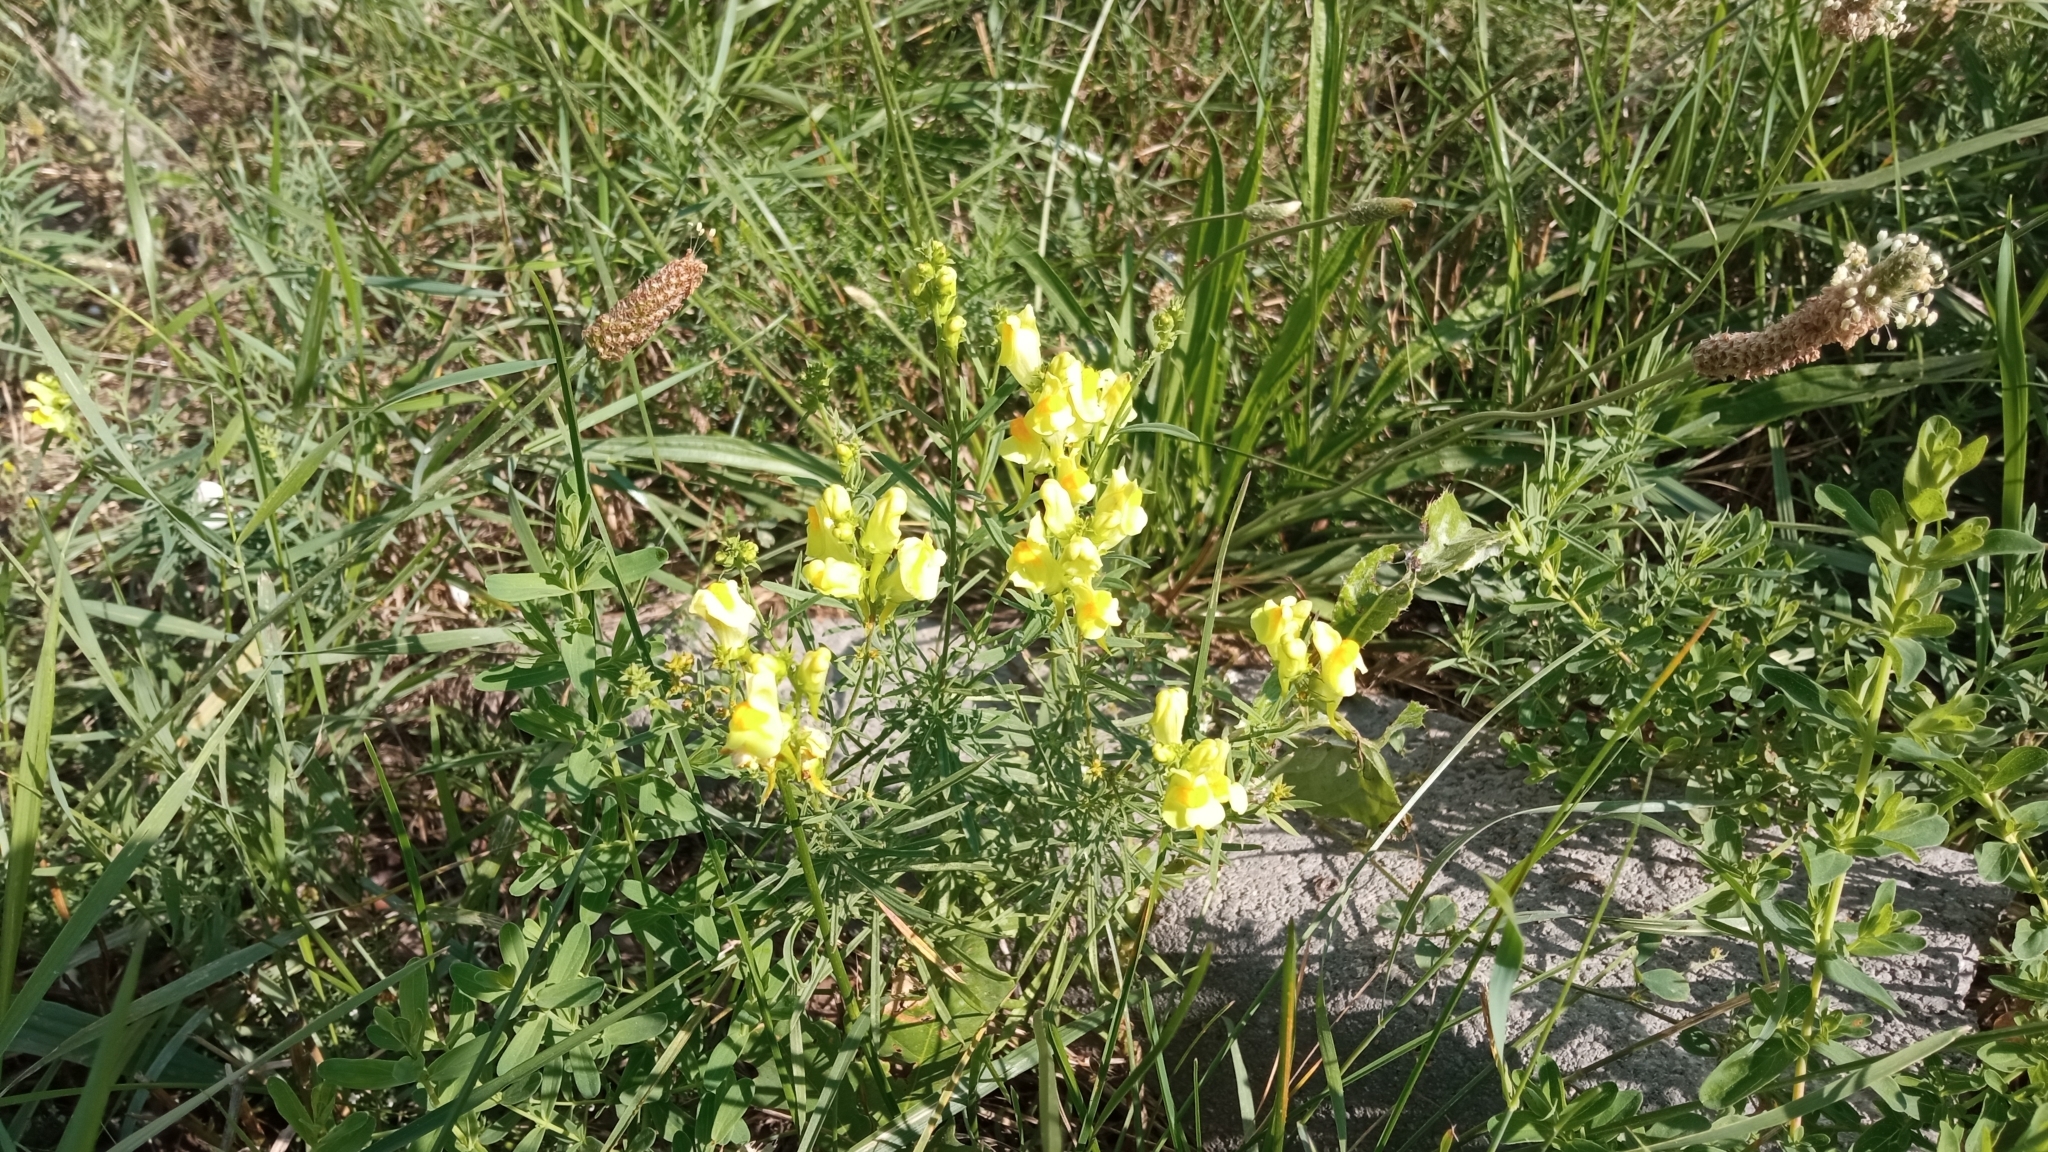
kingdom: Plantae
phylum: Tracheophyta
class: Magnoliopsida
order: Lamiales
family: Plantaginaceae
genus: Linaria
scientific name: Linaria vulgaris
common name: Butter and eggs
